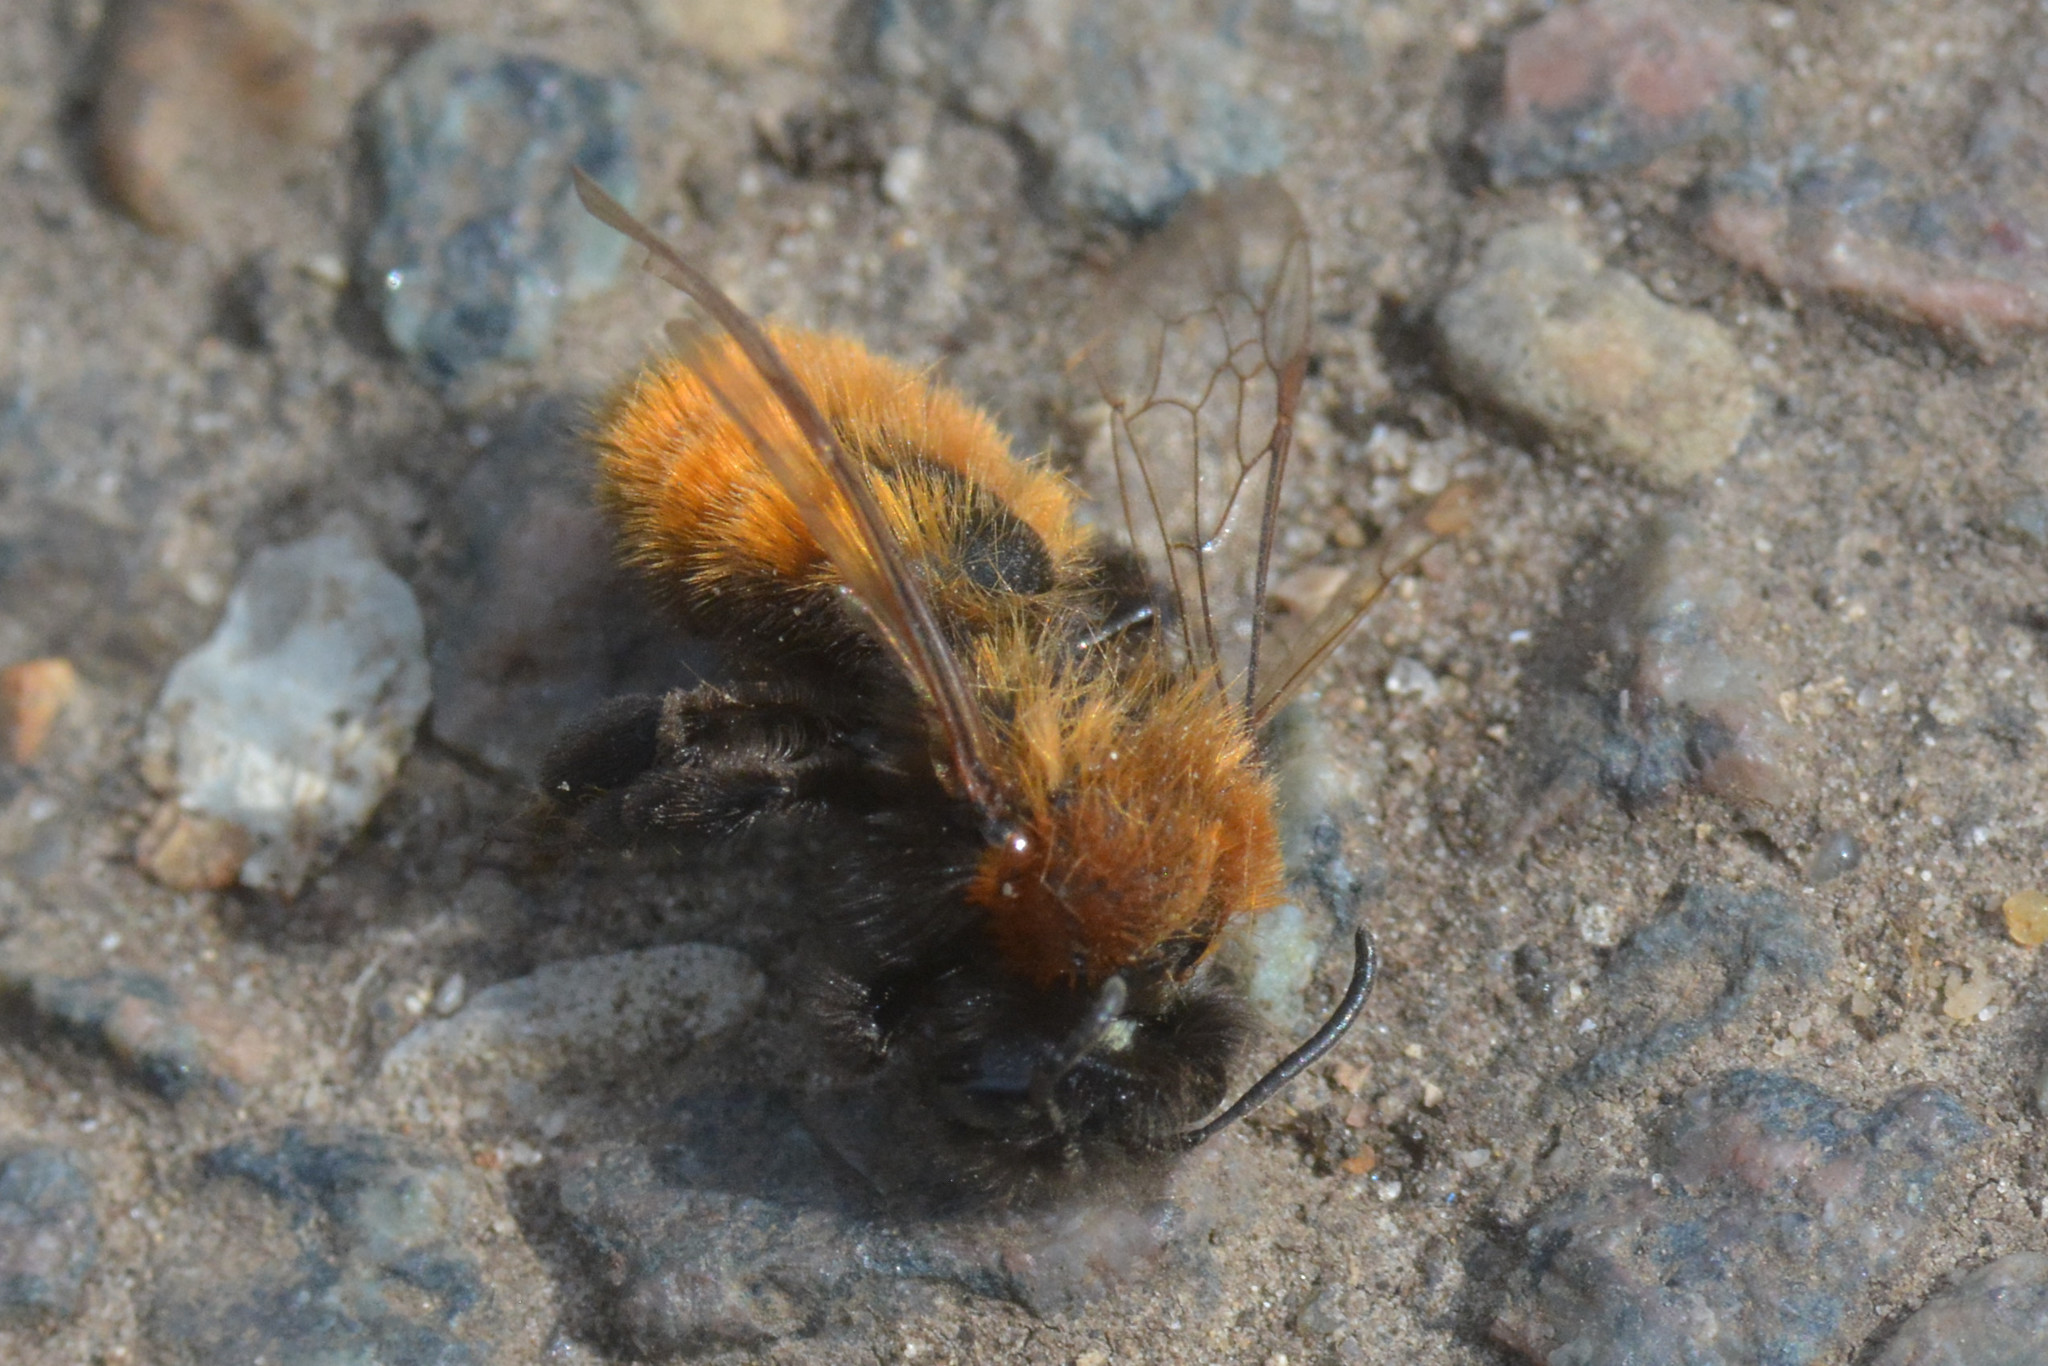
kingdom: Animalia
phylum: Arthropoda
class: Insecta
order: Hymenoptera
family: Andrenidae
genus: Andrena
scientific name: Andrena fulva
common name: Tawny mining bee
